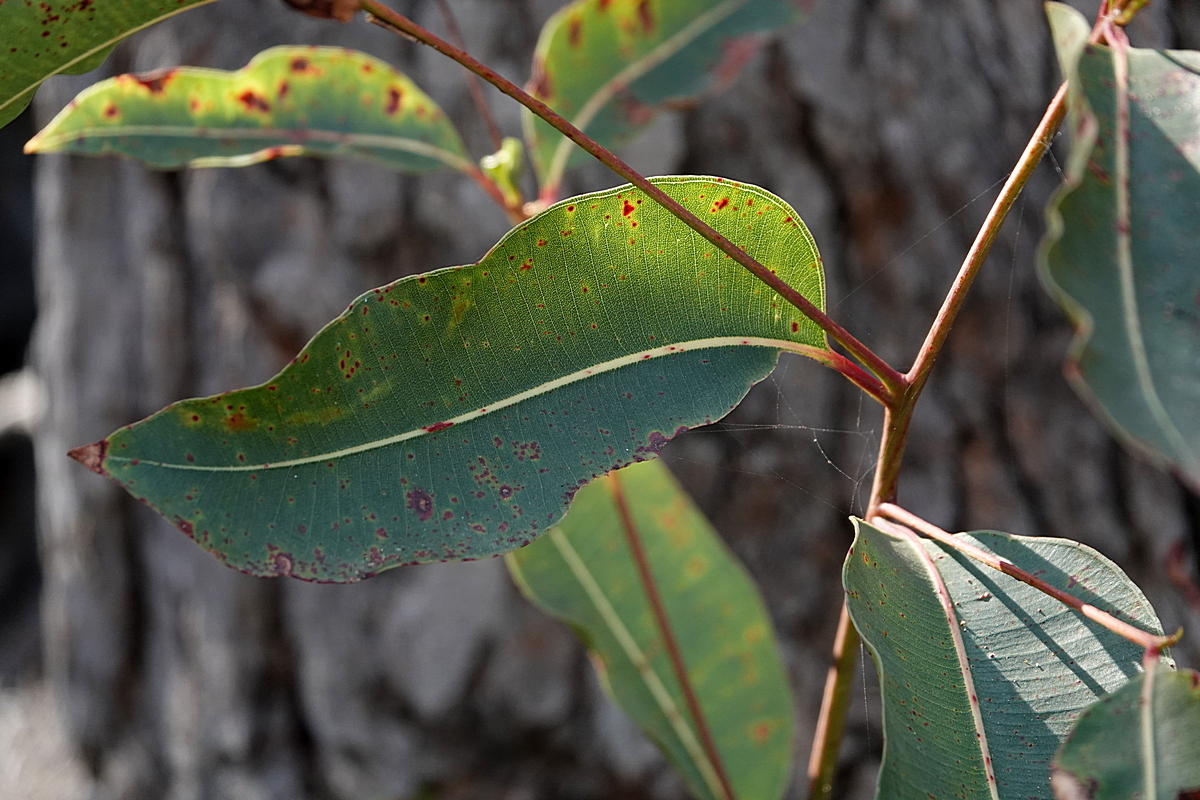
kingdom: Plantae
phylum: Tracheophyta
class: Magnoliopsida
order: Myrtales
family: Myrtaceae
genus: Corymbia
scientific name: Corymbia gummifera
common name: Red bloodwood
